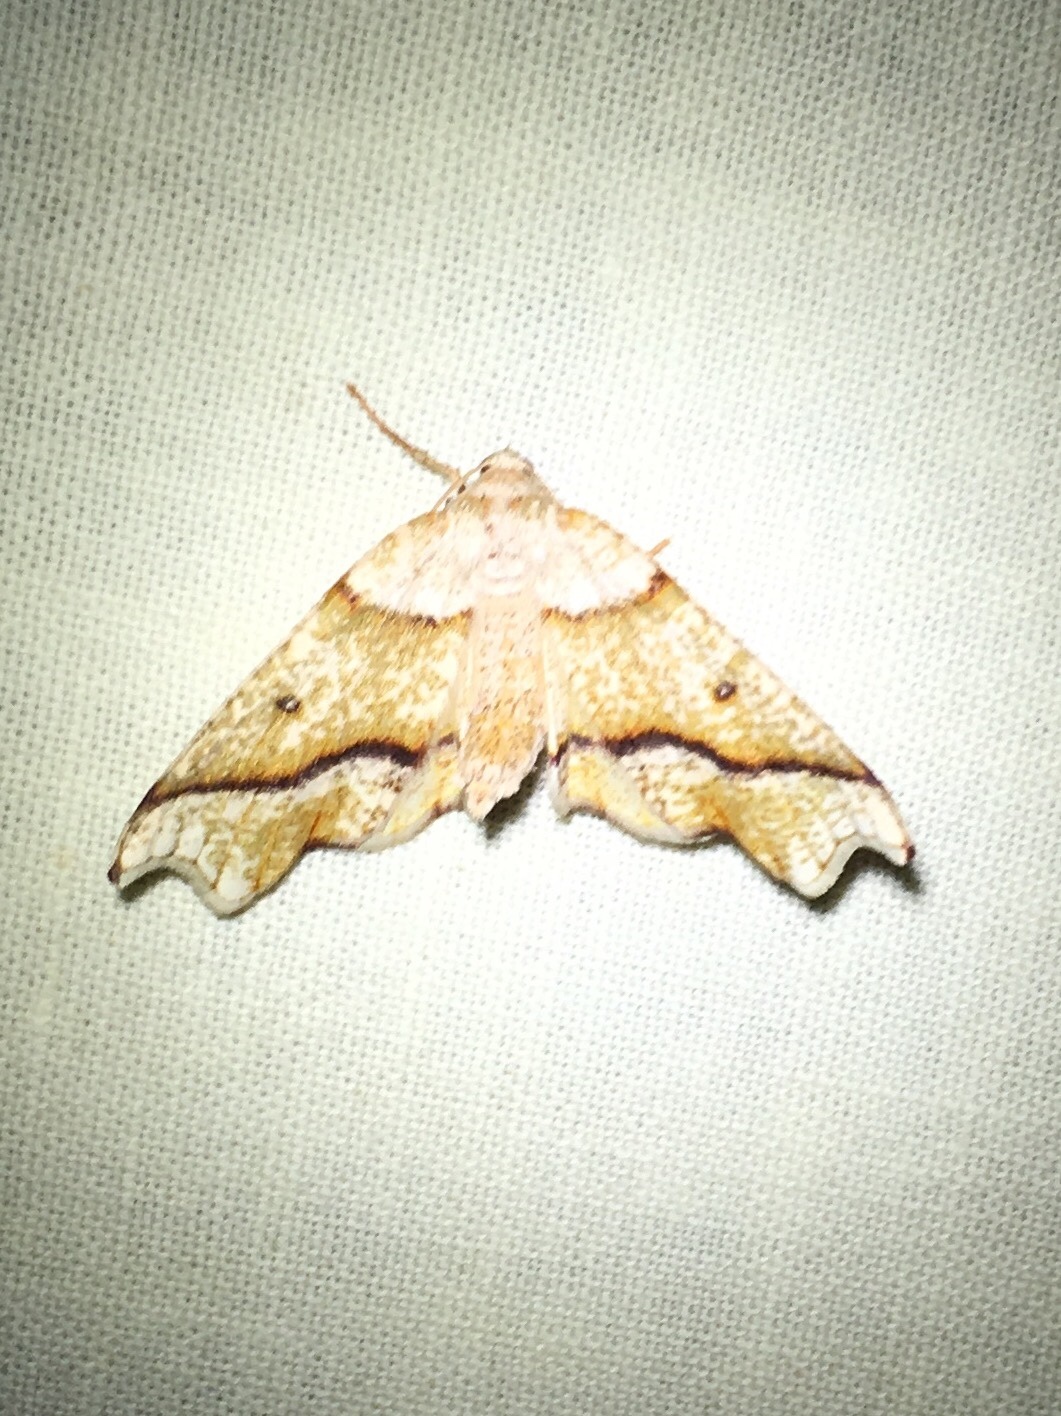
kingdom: Animalia
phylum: Arthropoda
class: Insecta
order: Lepidoptera
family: Geometridae
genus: Plagodis
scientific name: Plagodis alcoolaria
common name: Hollow-spotted plagodis
